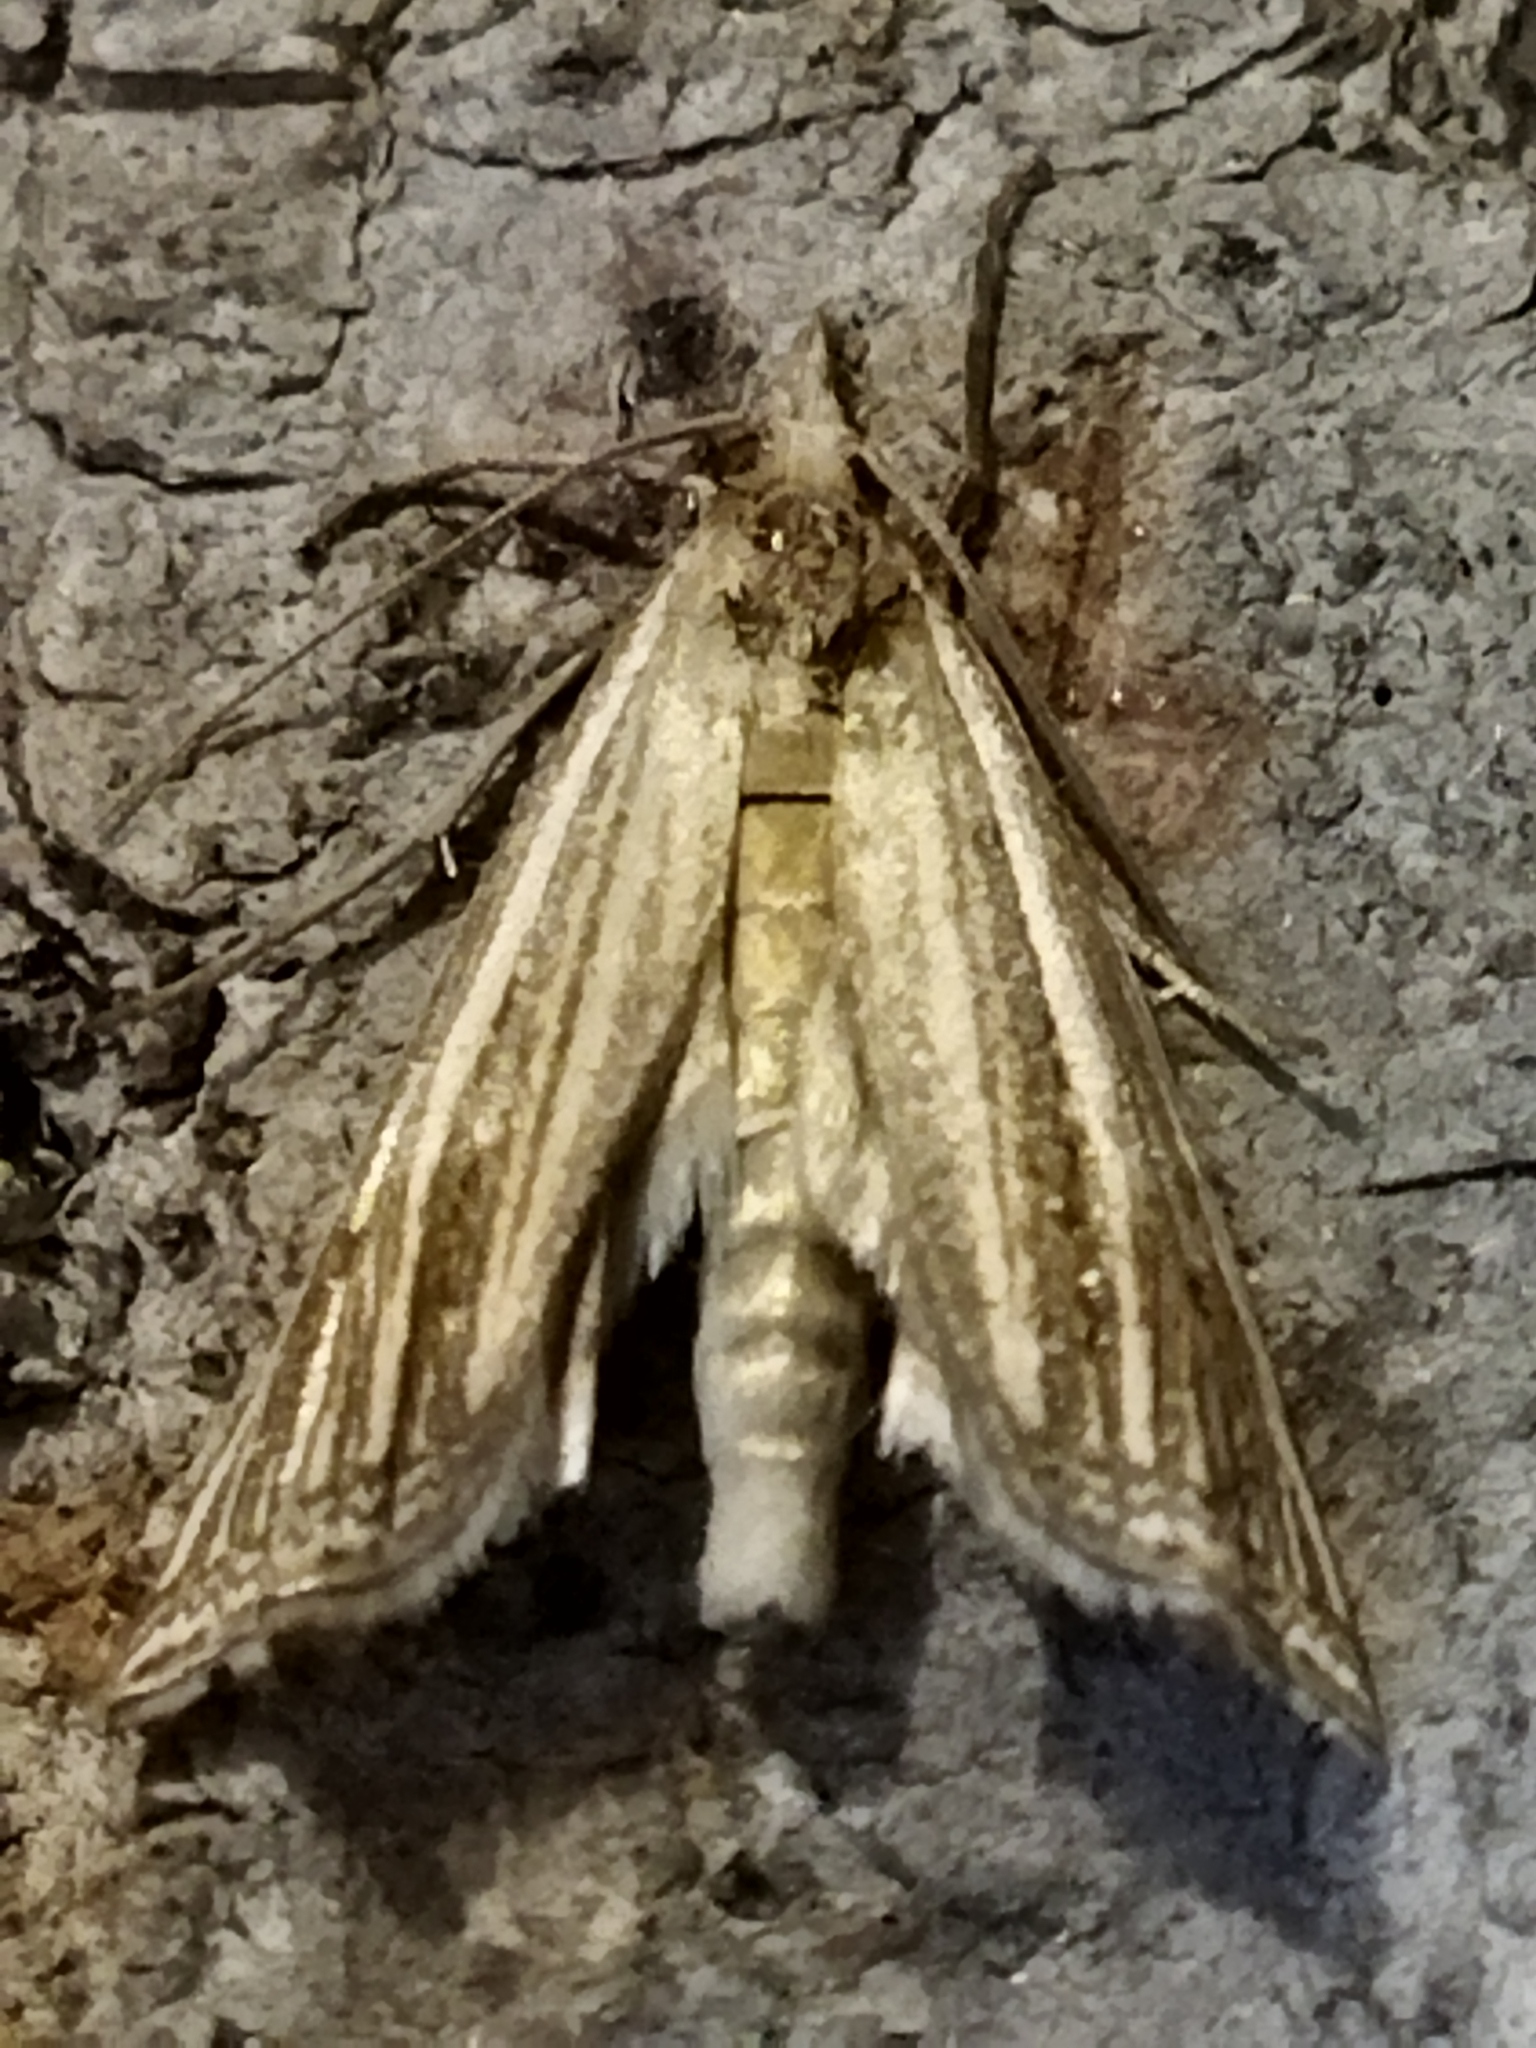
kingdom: Animalia
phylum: Arthropoda
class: Insecta
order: Lepidoptera
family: Crambidae
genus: Ancylolomia
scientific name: Ancylolomia
